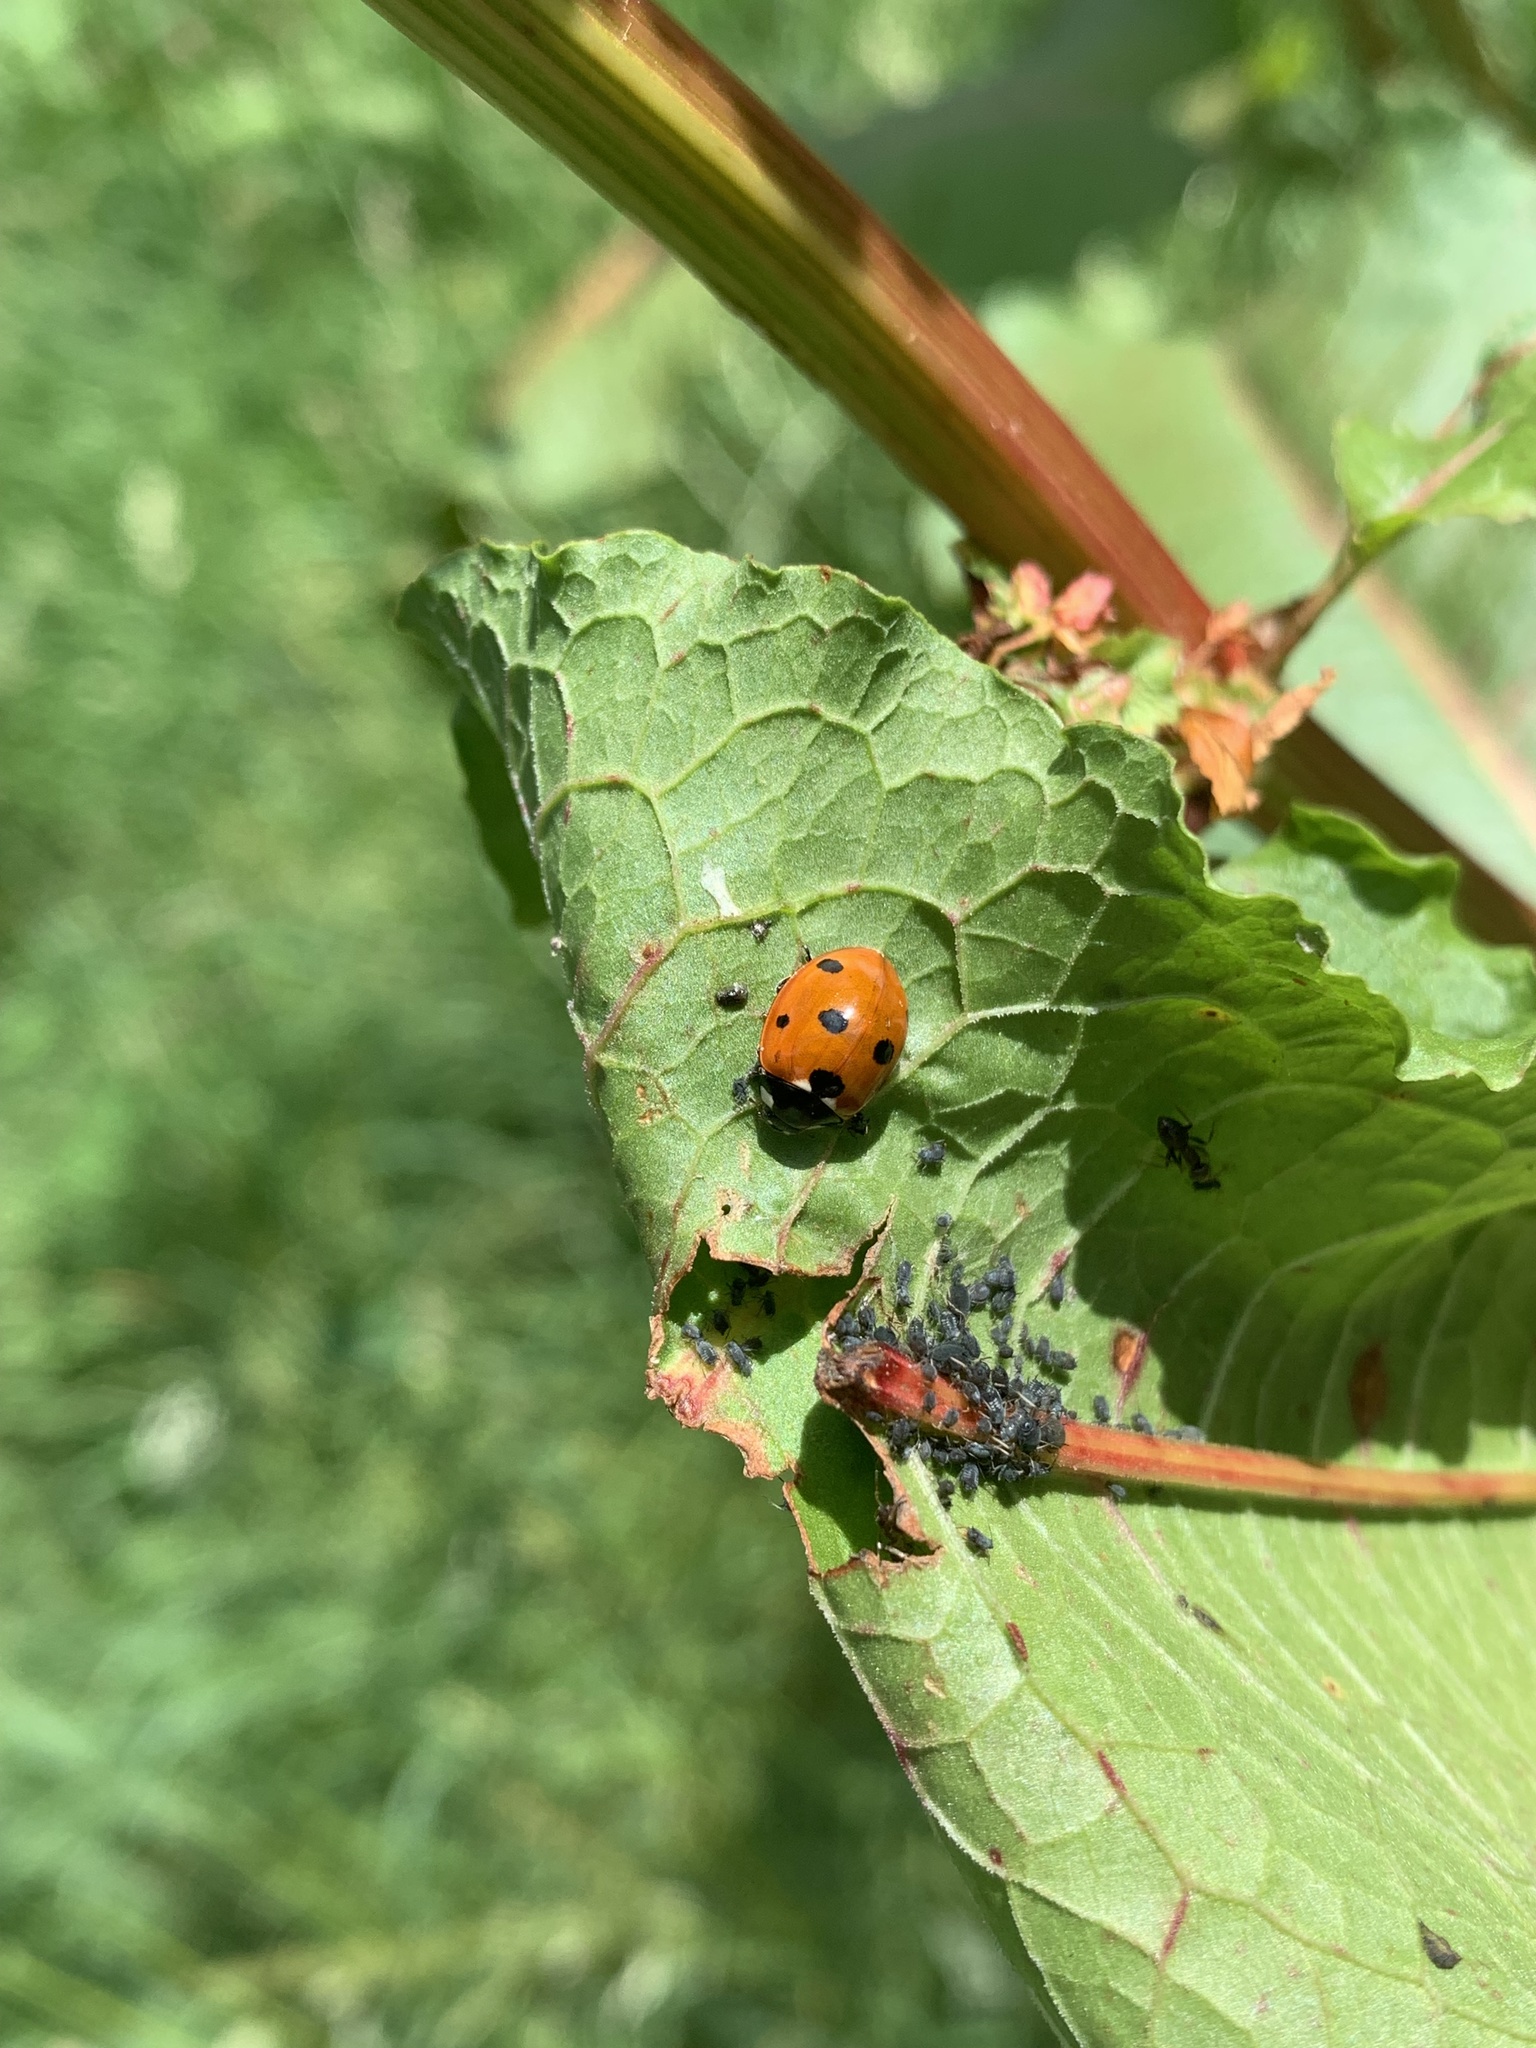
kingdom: Animalia
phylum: Arthropoda
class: Insecta
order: Coleoptera
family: Coccinellidae
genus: Coccinella
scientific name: Coccinella septempunctata
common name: Sevenspotted lady beetle
